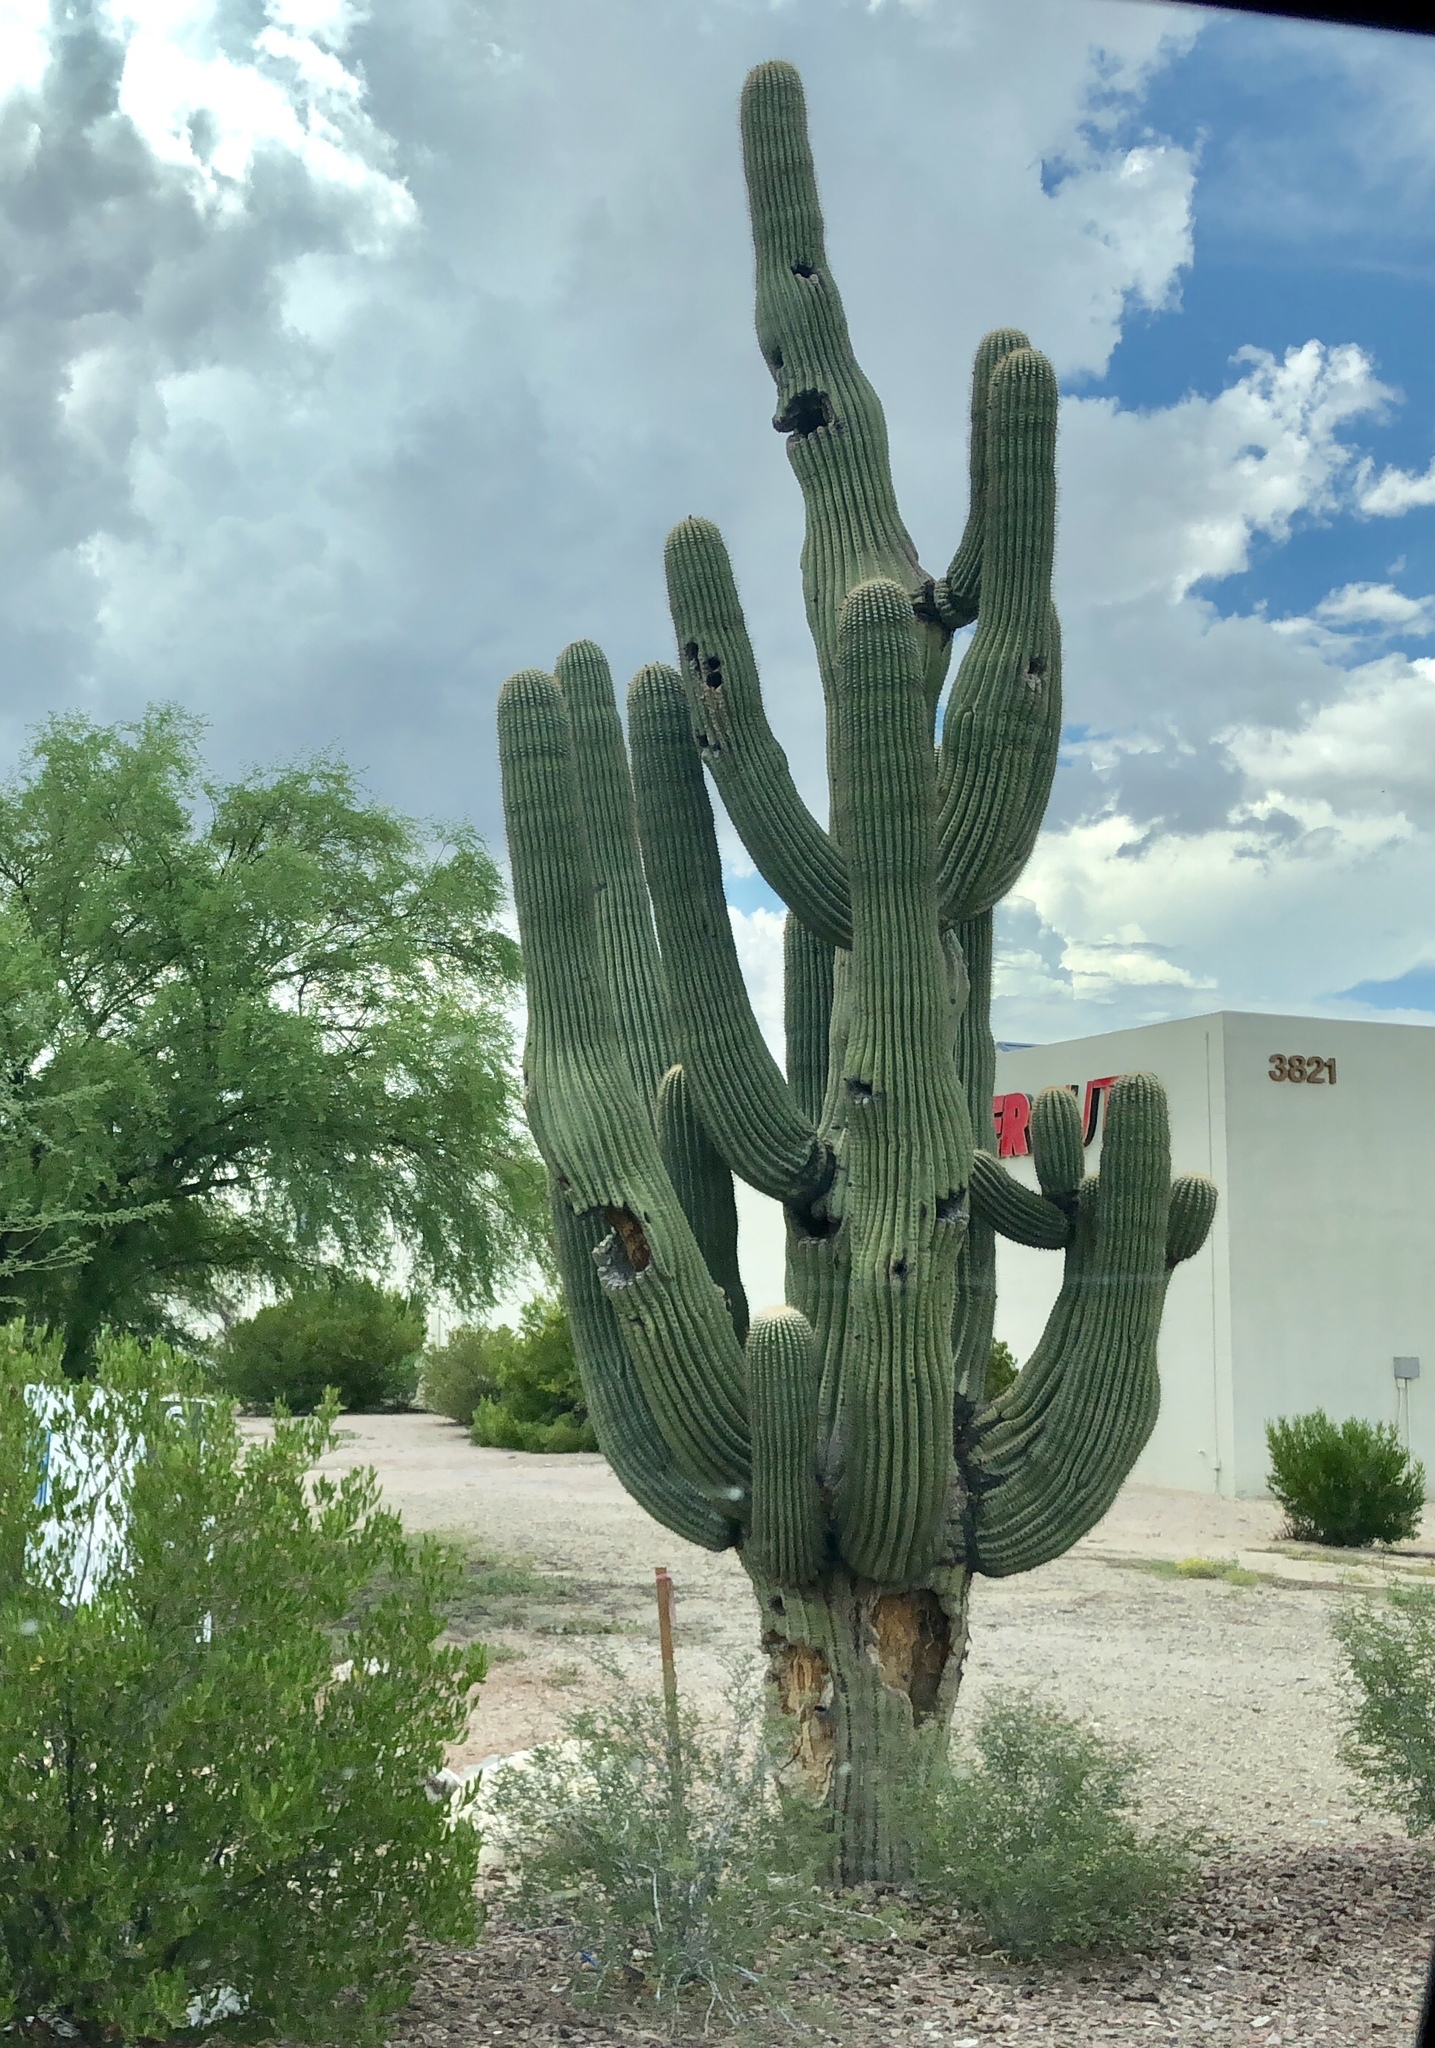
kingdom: Plantae
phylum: Tracheophyta
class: Magnoliopsida
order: Caryophyllales
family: Cactaceae
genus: Carnegiea
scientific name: Carnegiea gigantea
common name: Saguaro
